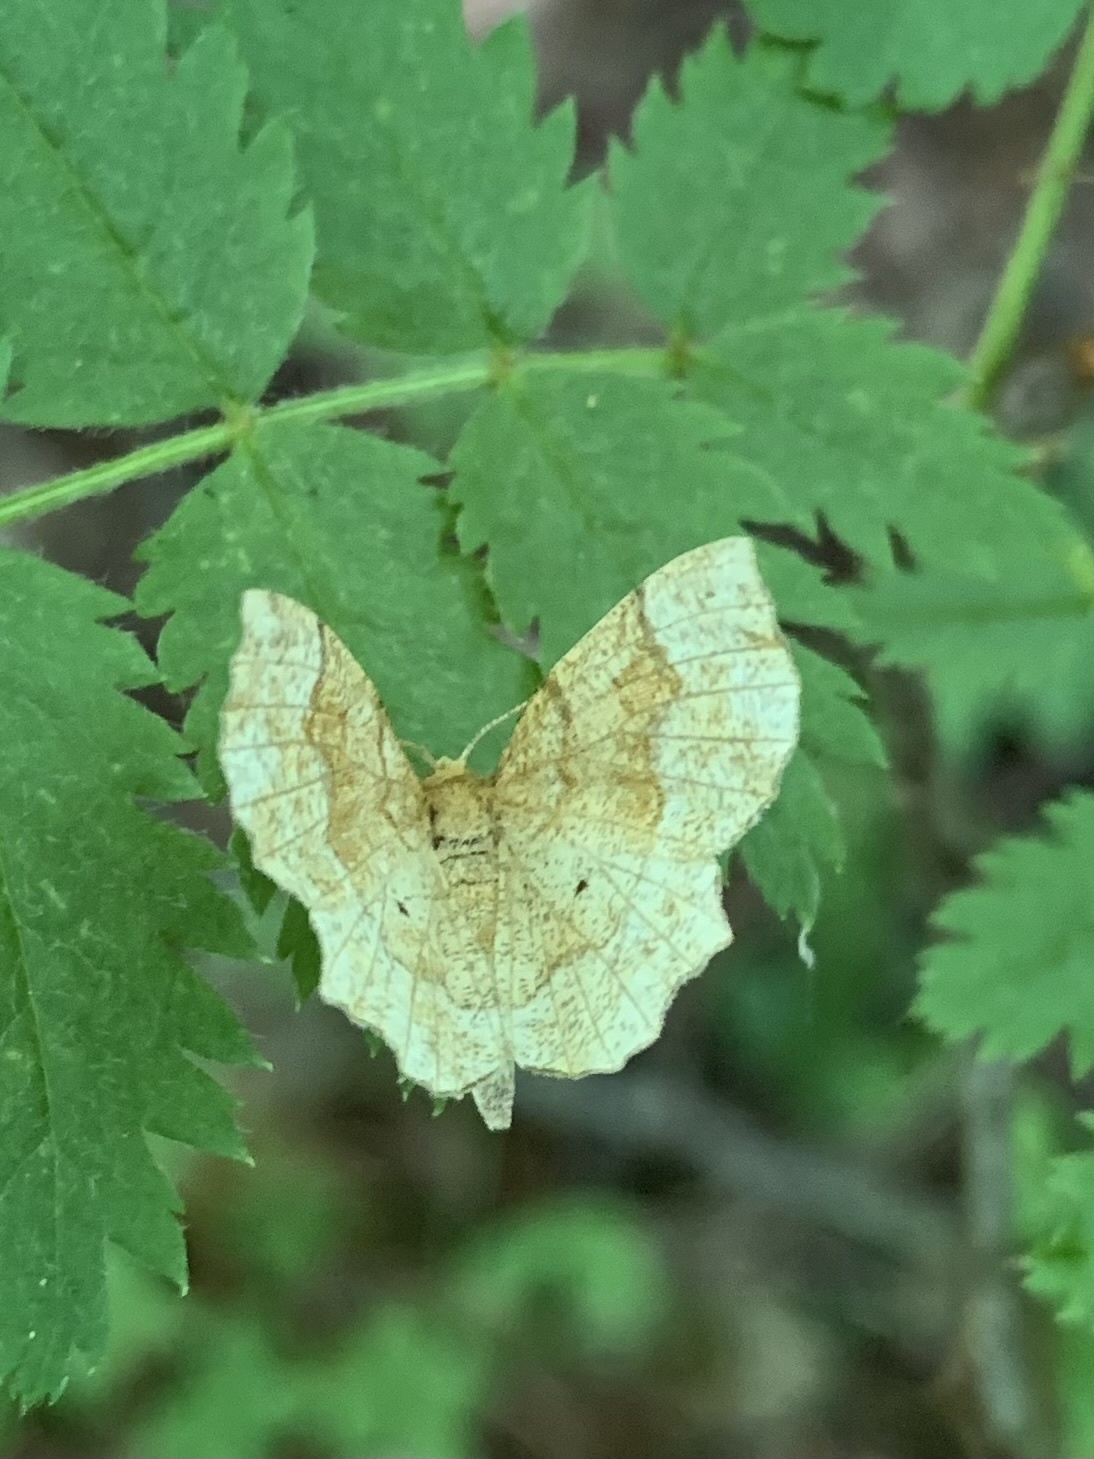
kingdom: Animalia
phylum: Arthropoda
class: Insecta
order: Lepidoptera
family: Geometridae
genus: Cepphis
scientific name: Cepphis advenaria
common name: Little thorn
